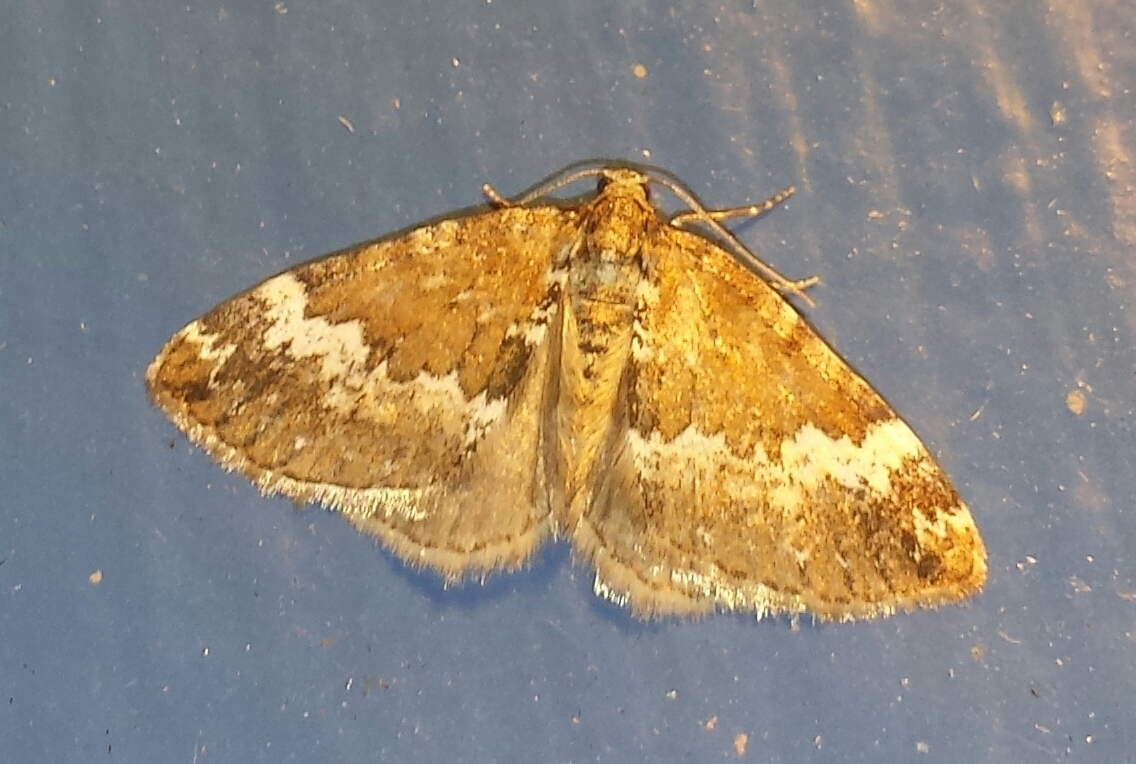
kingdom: Animalia
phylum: Arthropoda
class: Insecta
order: Lepidoptera
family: Geometridae
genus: Perizoma
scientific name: Perizoma alchemillata
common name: Small rivulet
